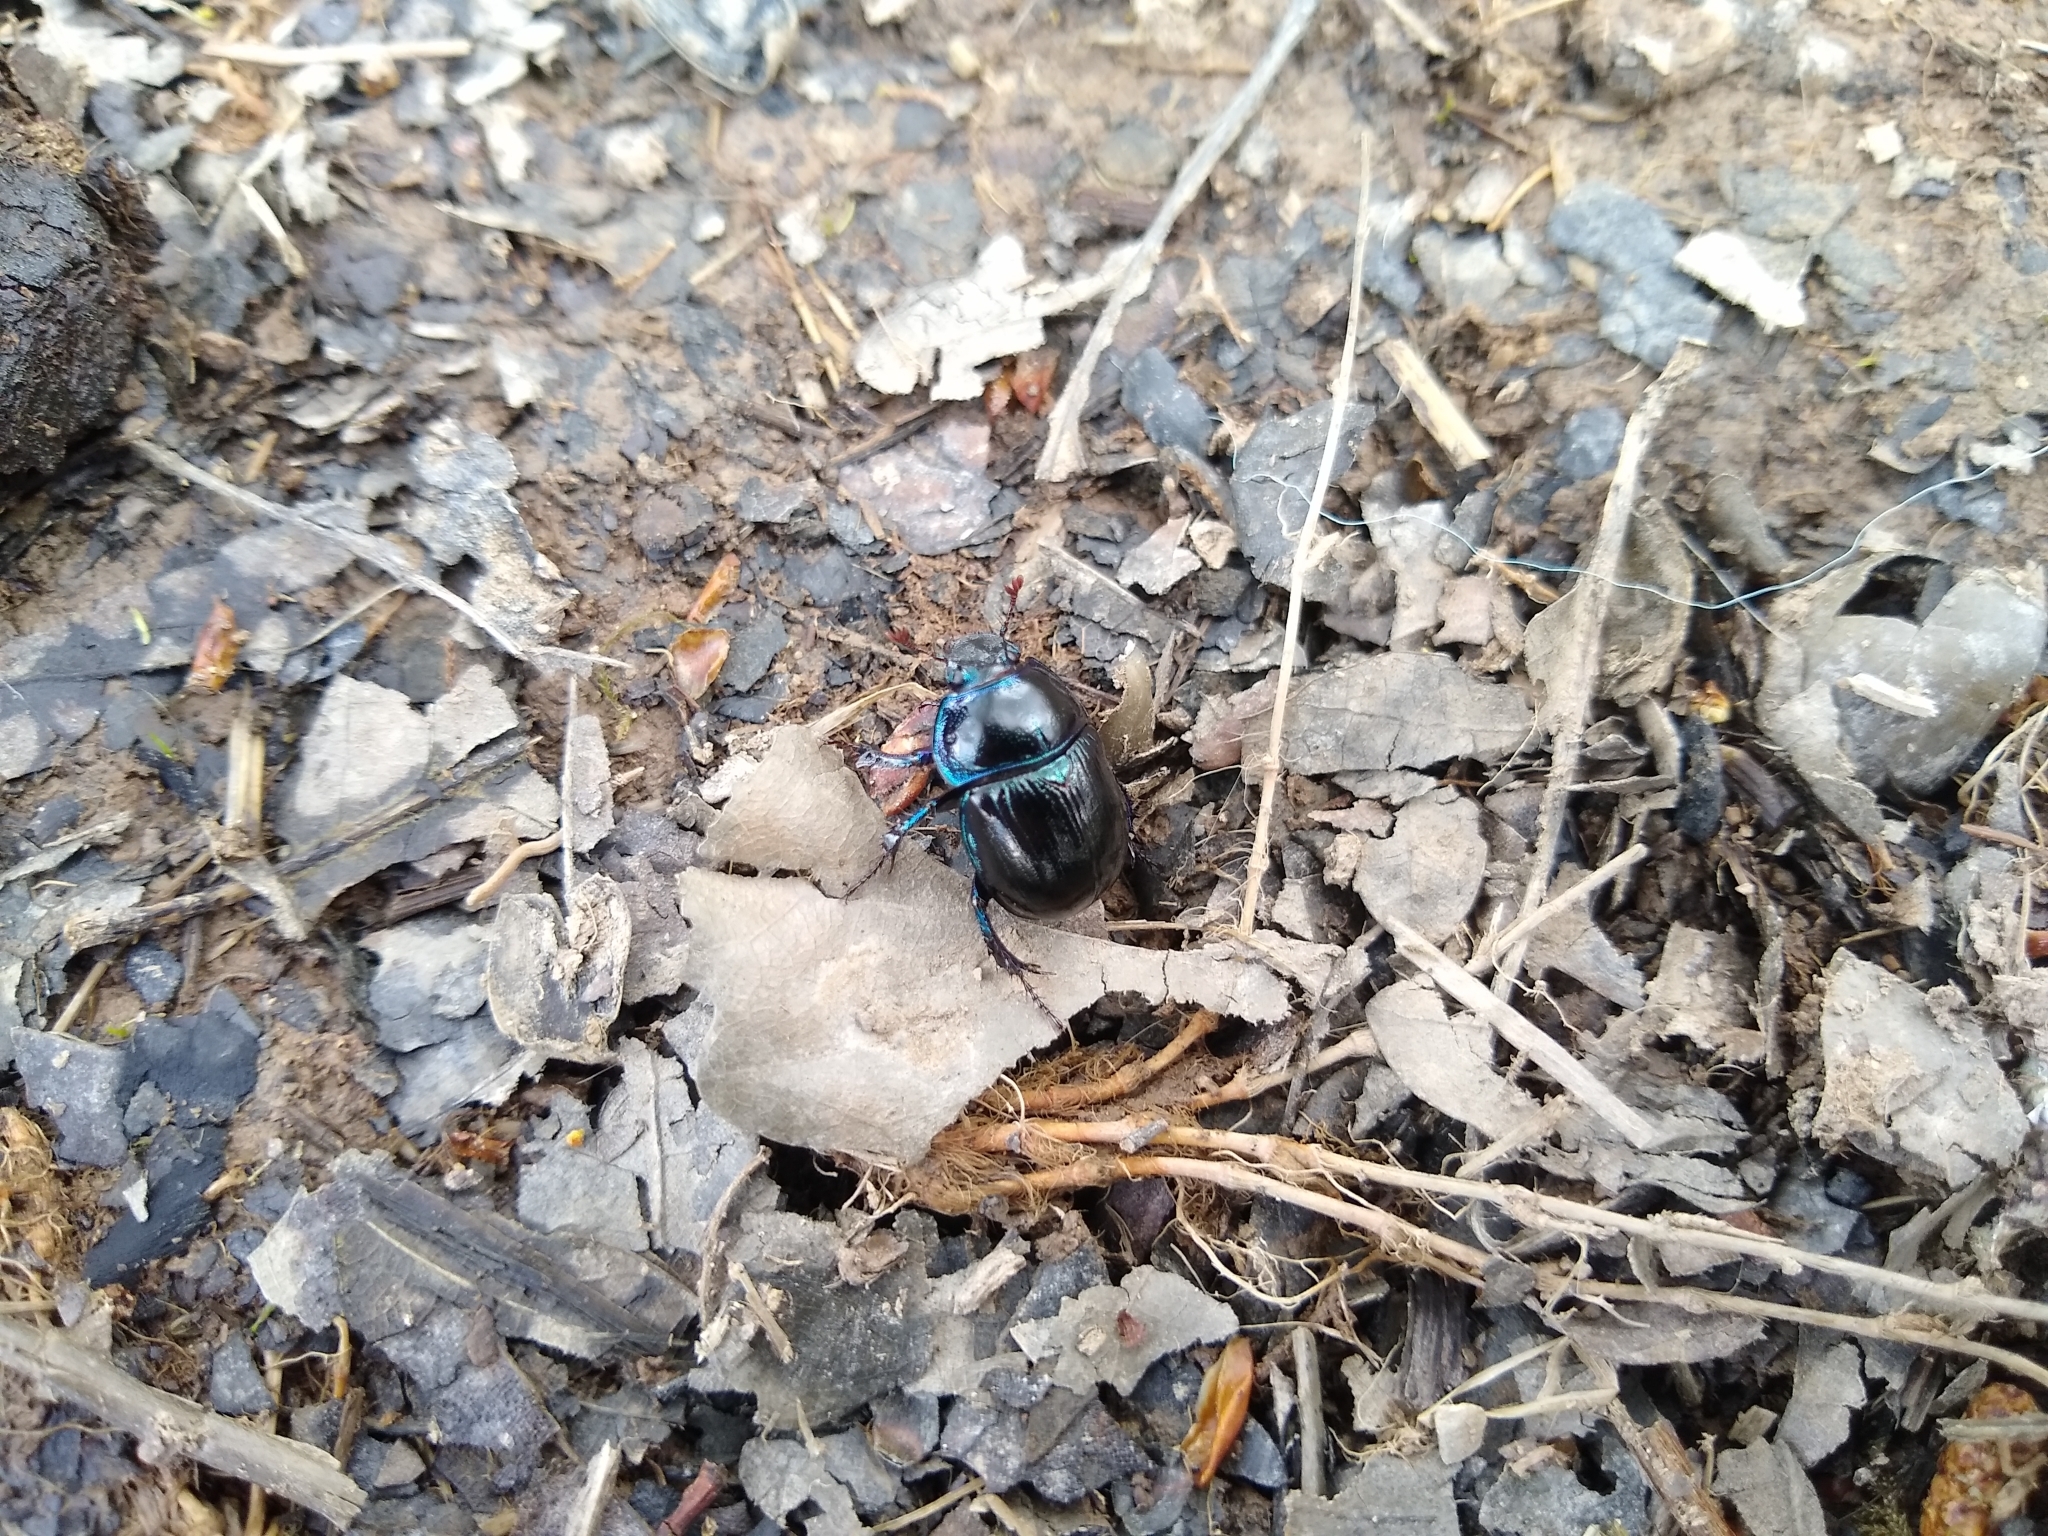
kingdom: Animalia
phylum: Arthropoda
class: Insecta
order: Coleoptera
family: Geotrupidae
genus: Anoplotrupes
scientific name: Anoplotrupes stercorosus
